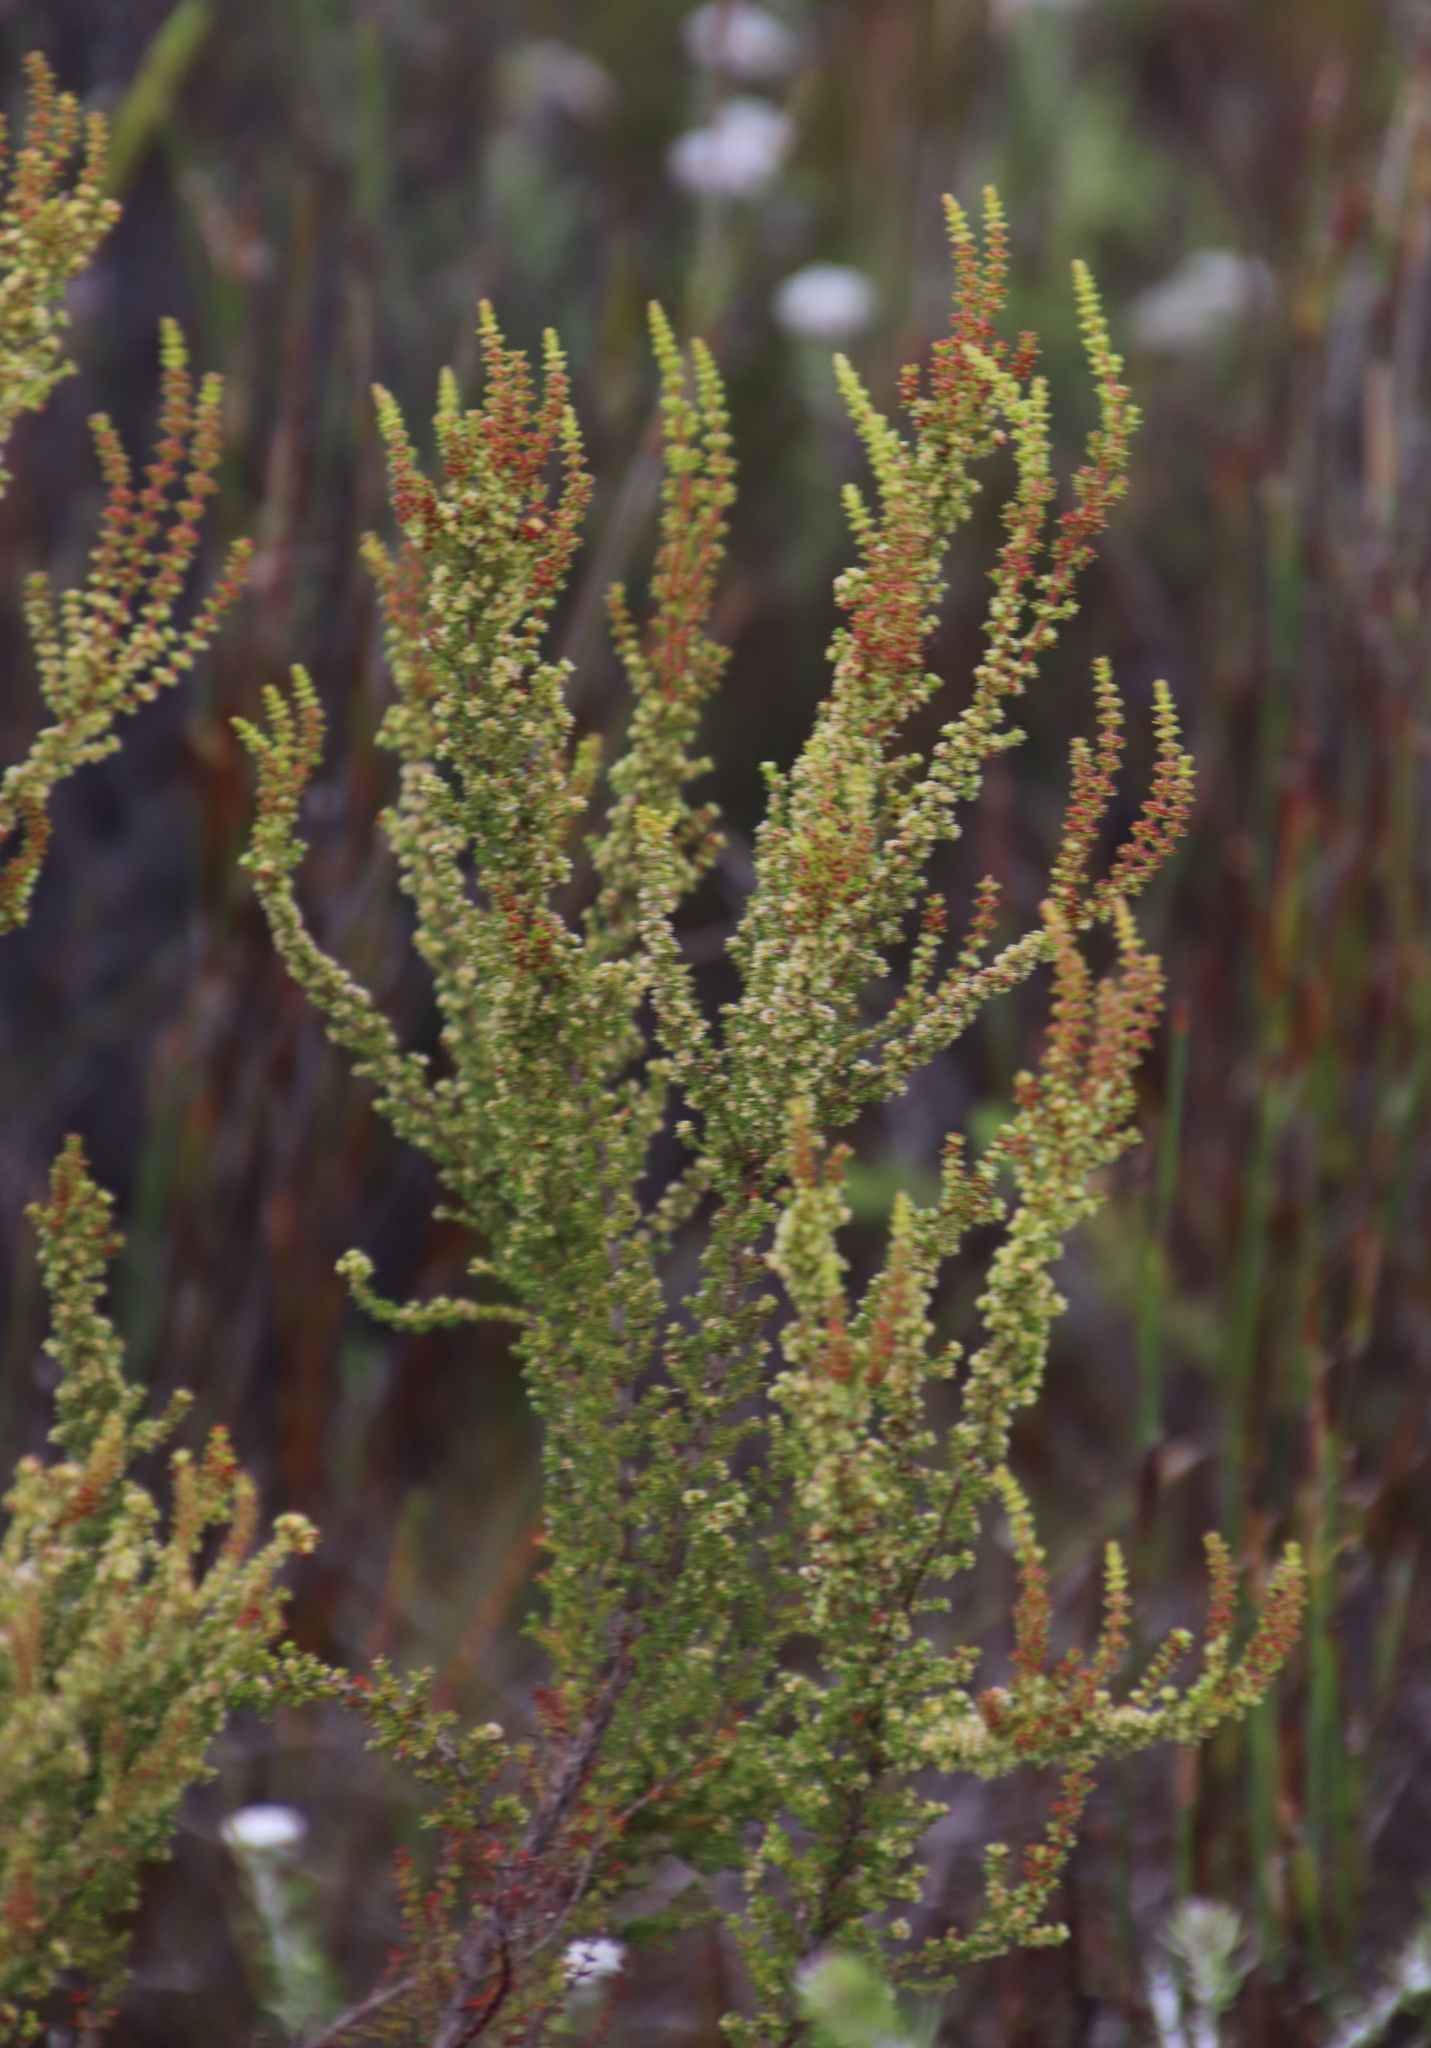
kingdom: Plantae
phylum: Tracheophyta
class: Magnoliopsida
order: Ericales
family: Ericaceae
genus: Erica
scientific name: Erica muscosa
